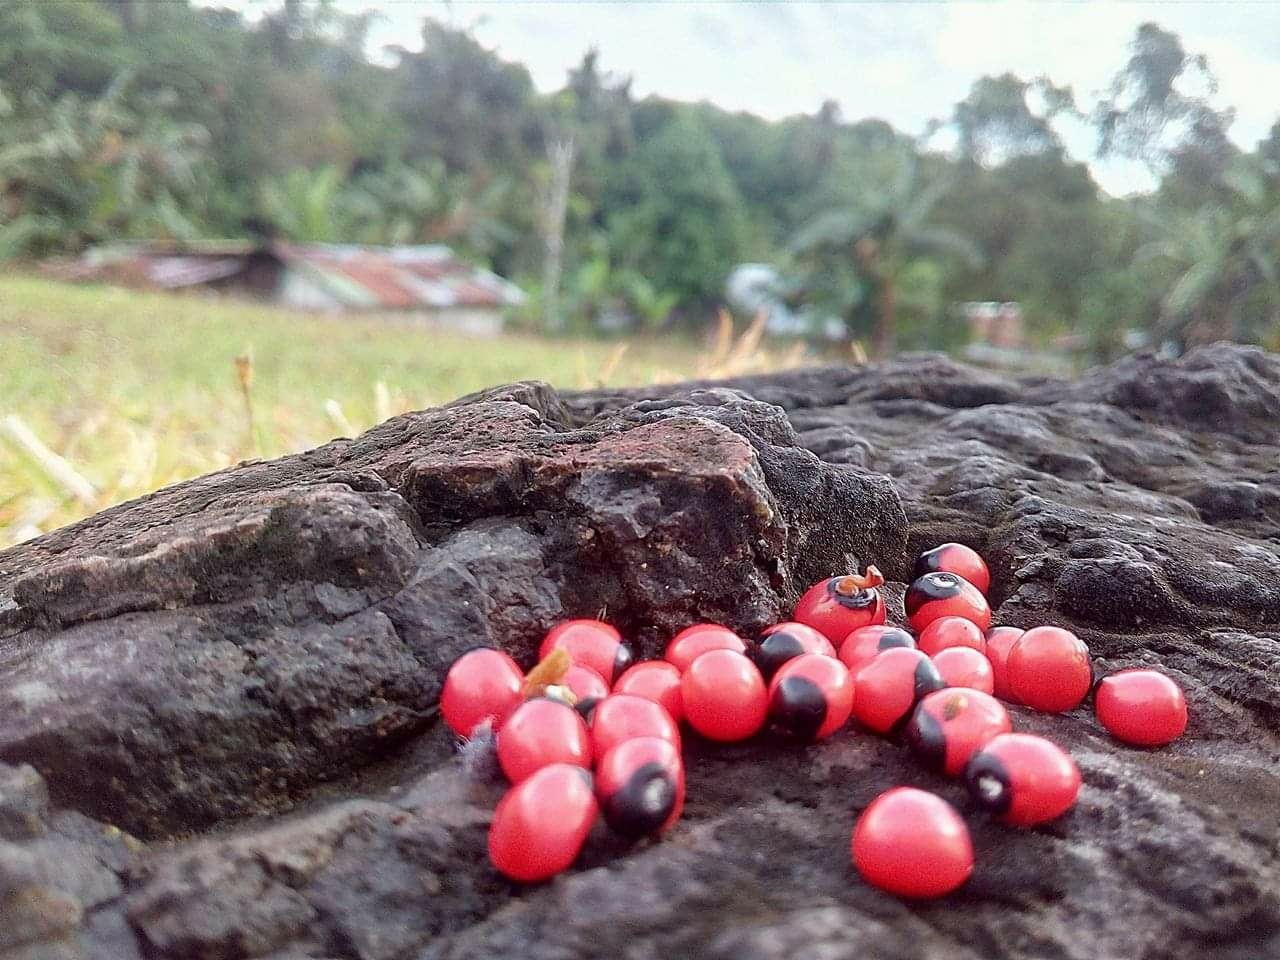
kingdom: Plantae
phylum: Tracheophyta
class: Magnoliopsida
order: Fabales
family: Fabaceae
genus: Abrus
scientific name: Abrus precatorius
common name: Rosarypea
